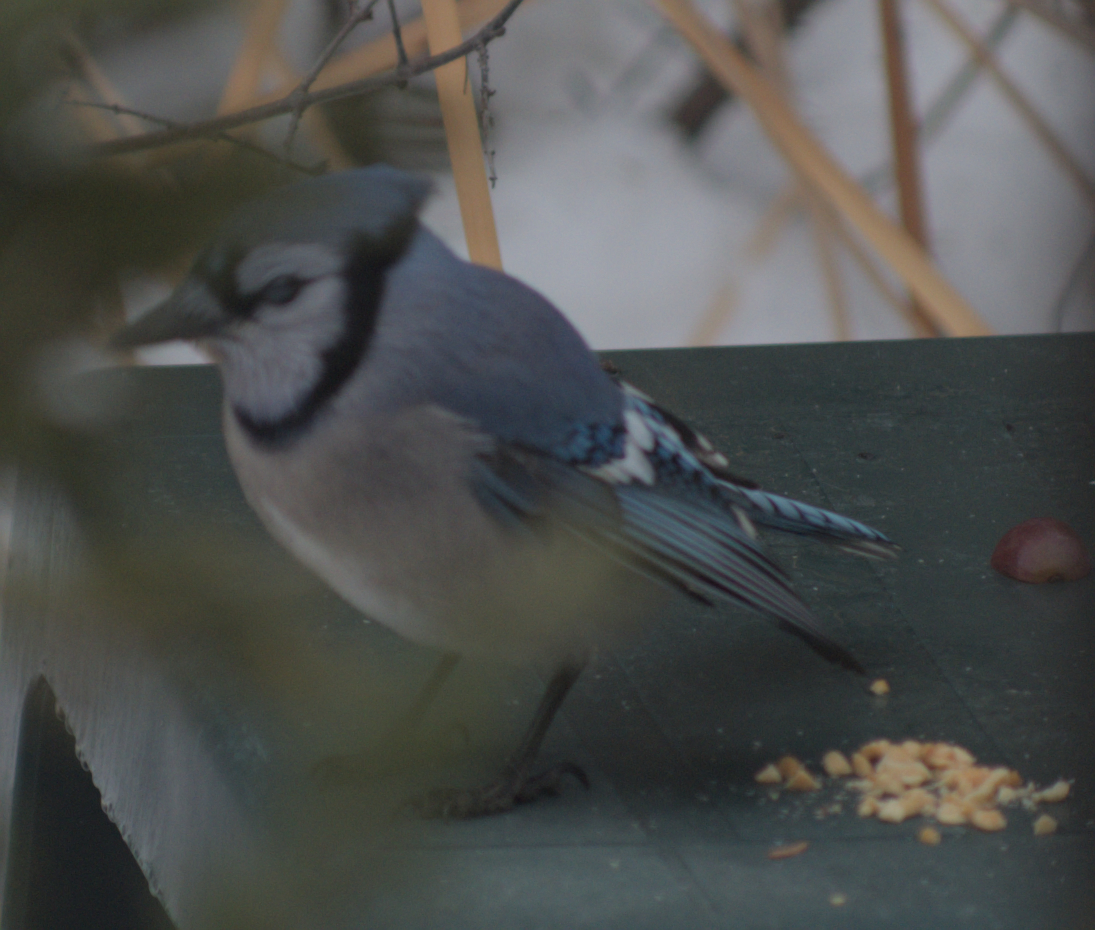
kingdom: Animalia
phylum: Chordata
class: Aves
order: Passeriformes
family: Corvidae
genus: Cyanocitta
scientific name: Cyanocitta cristata
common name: Blue jay
